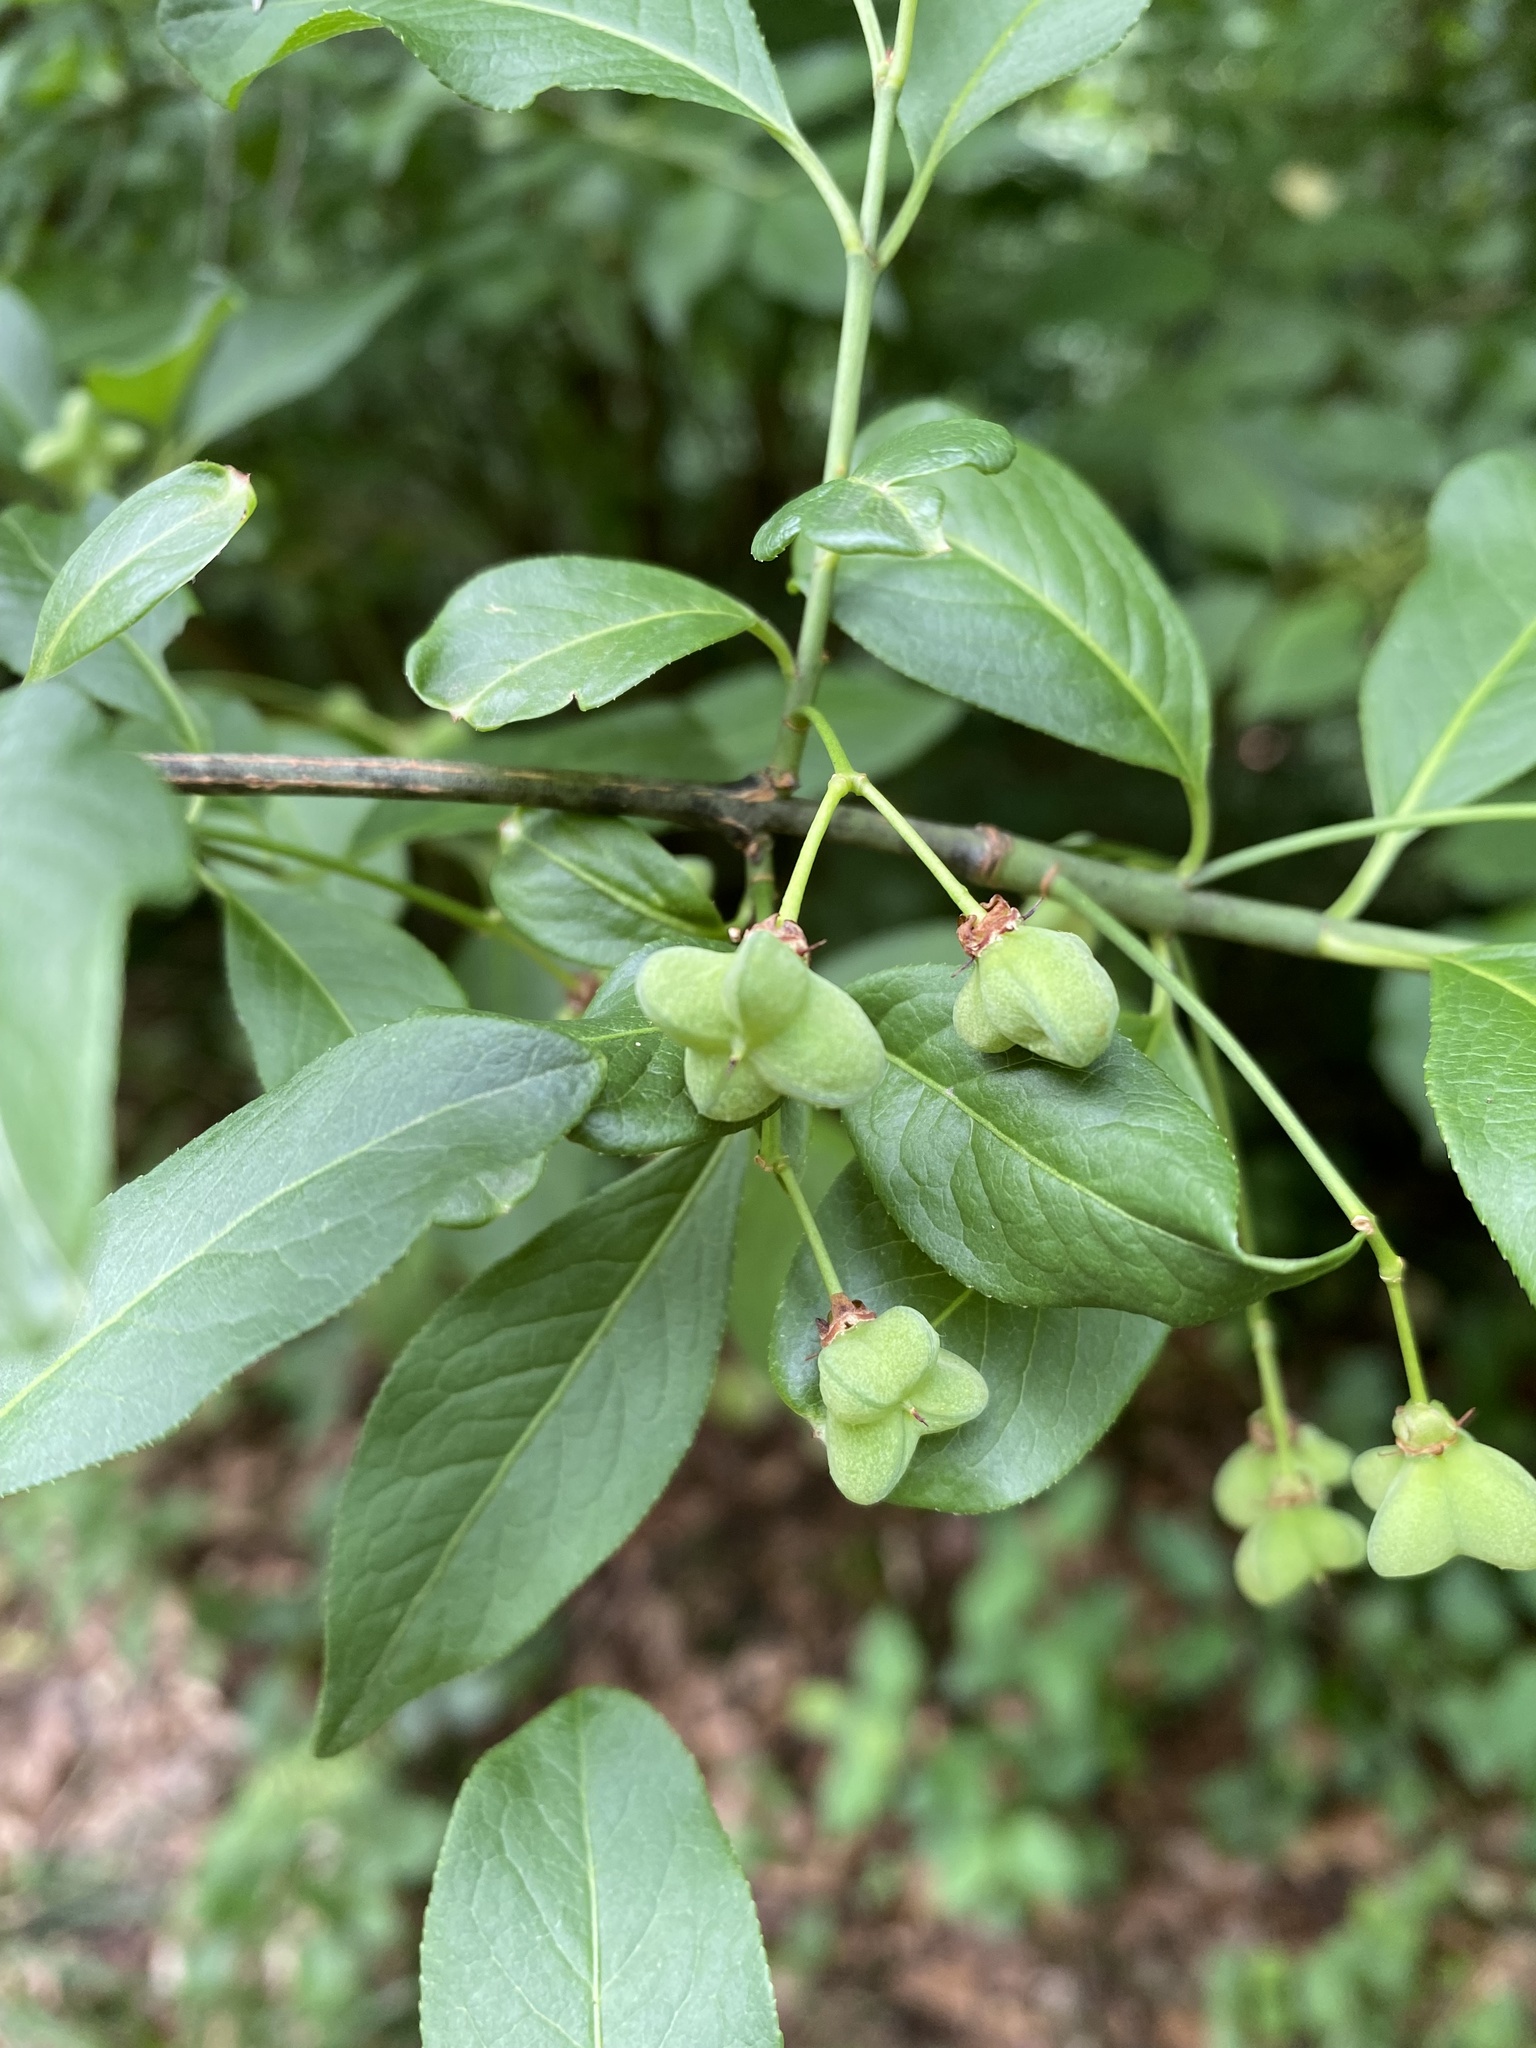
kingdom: Plantae
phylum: Tracheophyta
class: Magnoliopsida
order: Celastrales
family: Celastraceae
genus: Euonymus
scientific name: Euonymus europaeus
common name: Spindle
